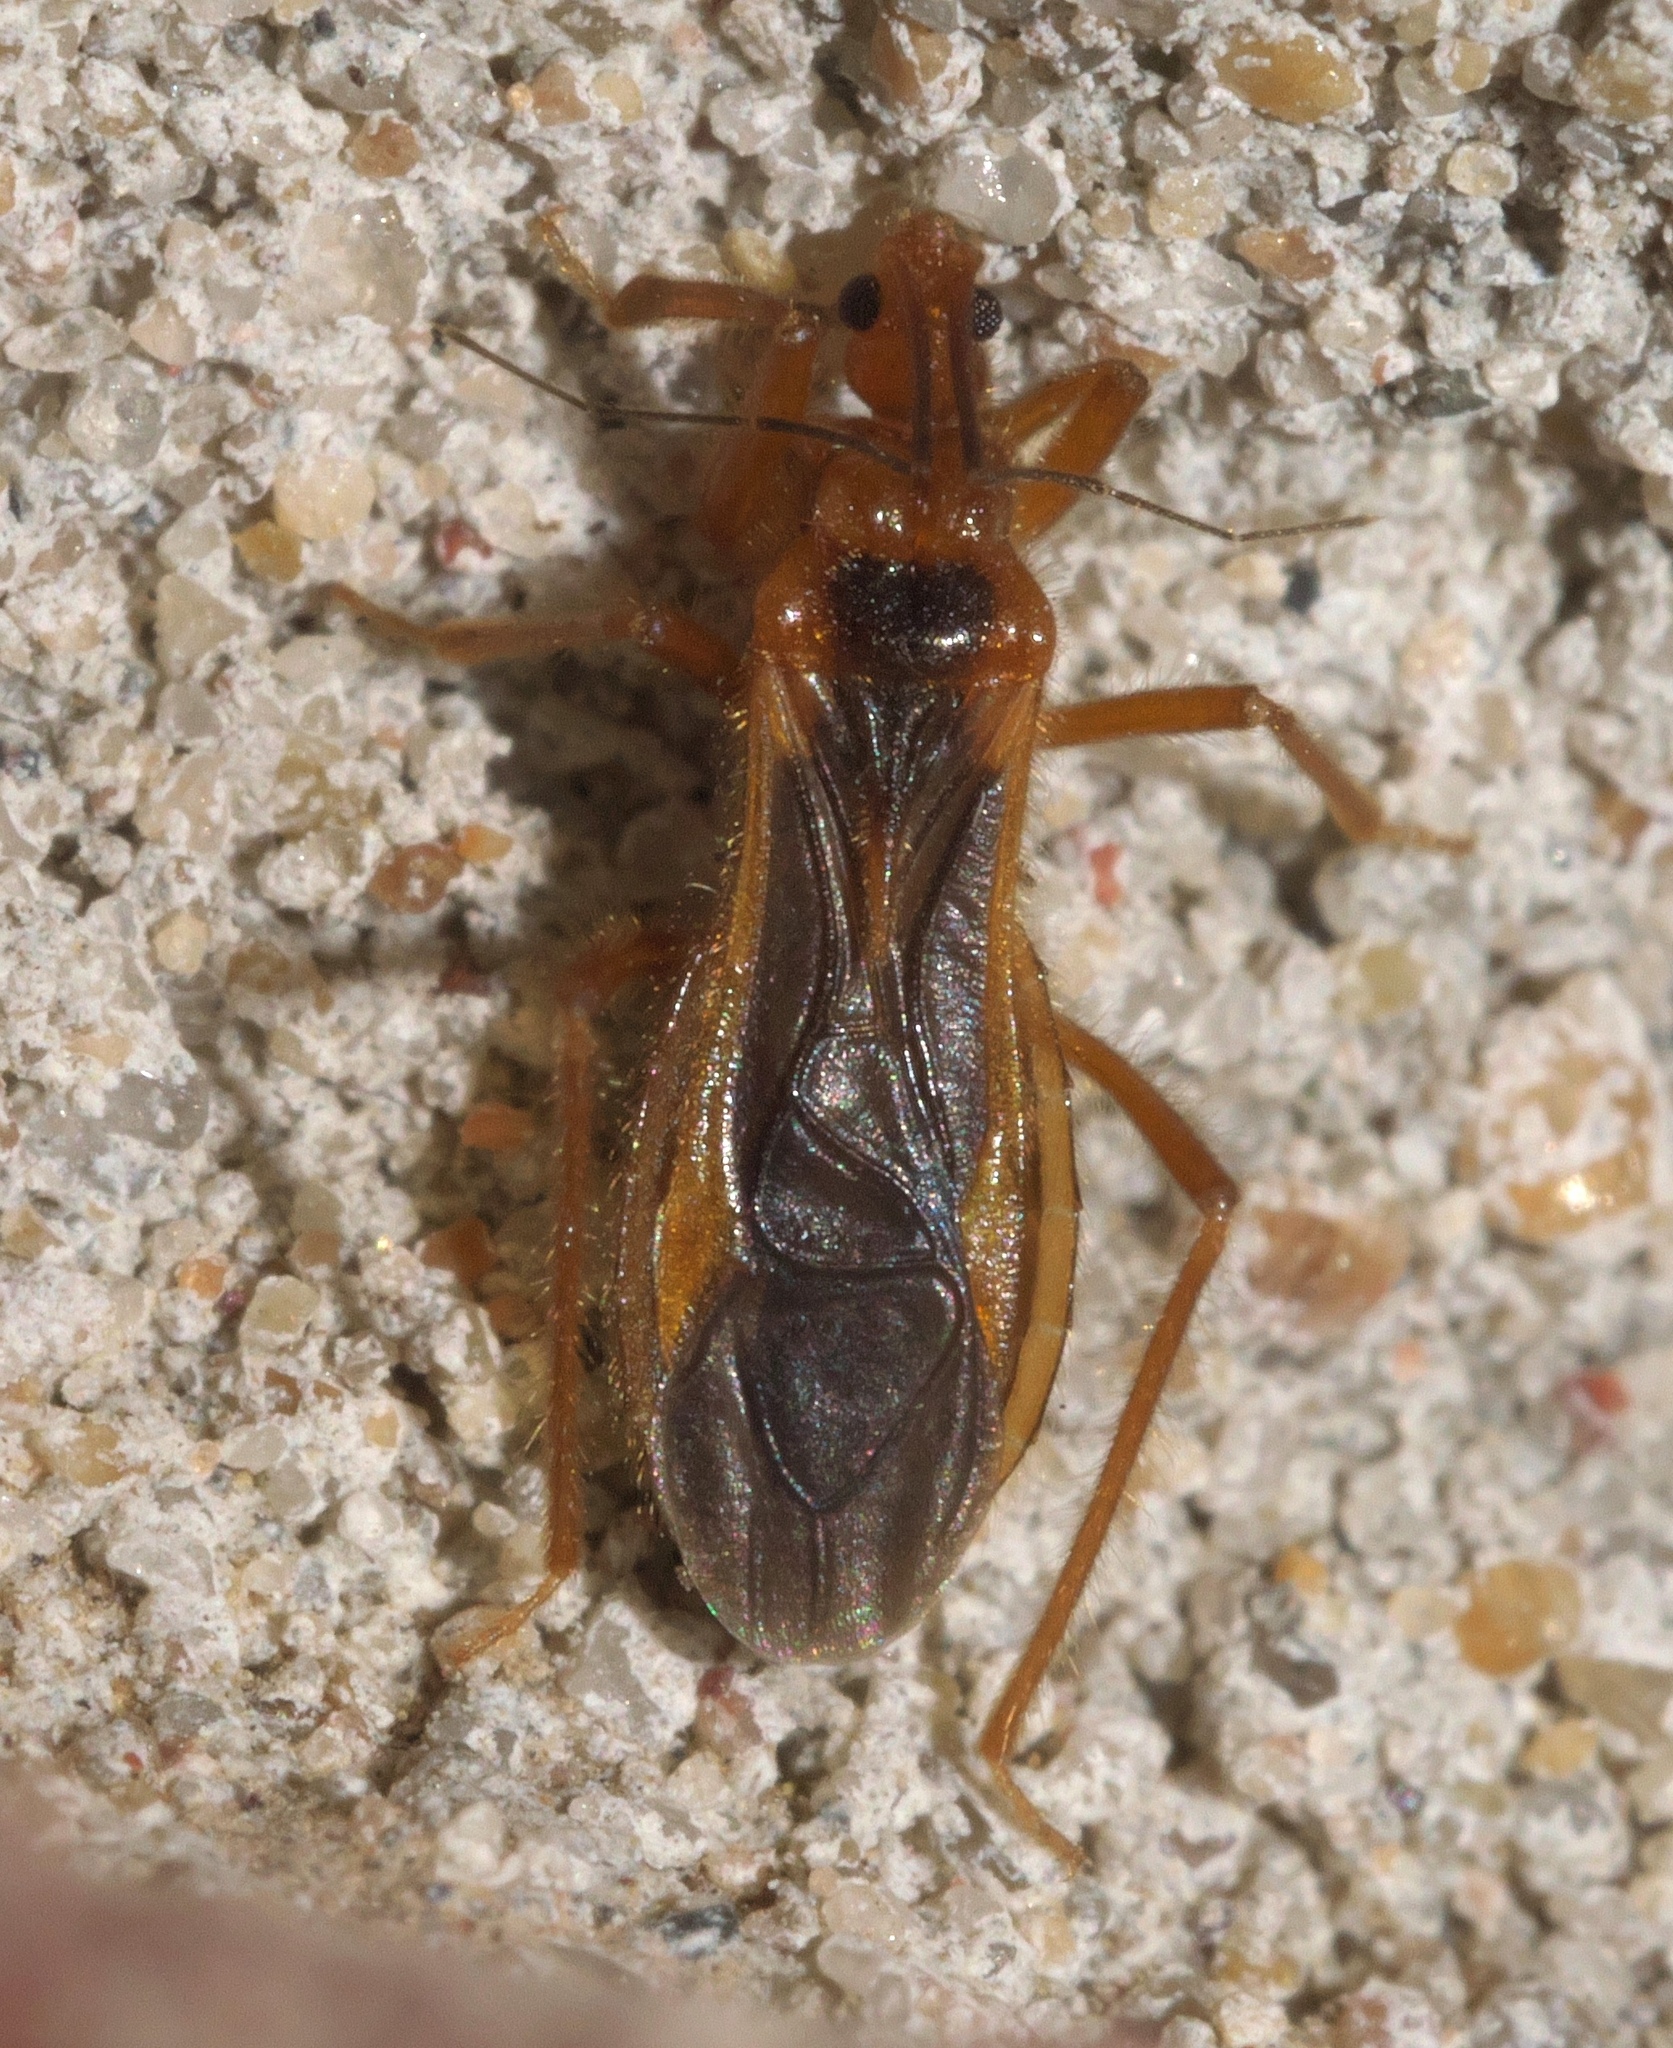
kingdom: Animalia
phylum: Arthropoda
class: Insecta
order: Hemiptera
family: Reduviidae
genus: Oncerotrachelus
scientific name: Oncerotrachelus acuminatus
